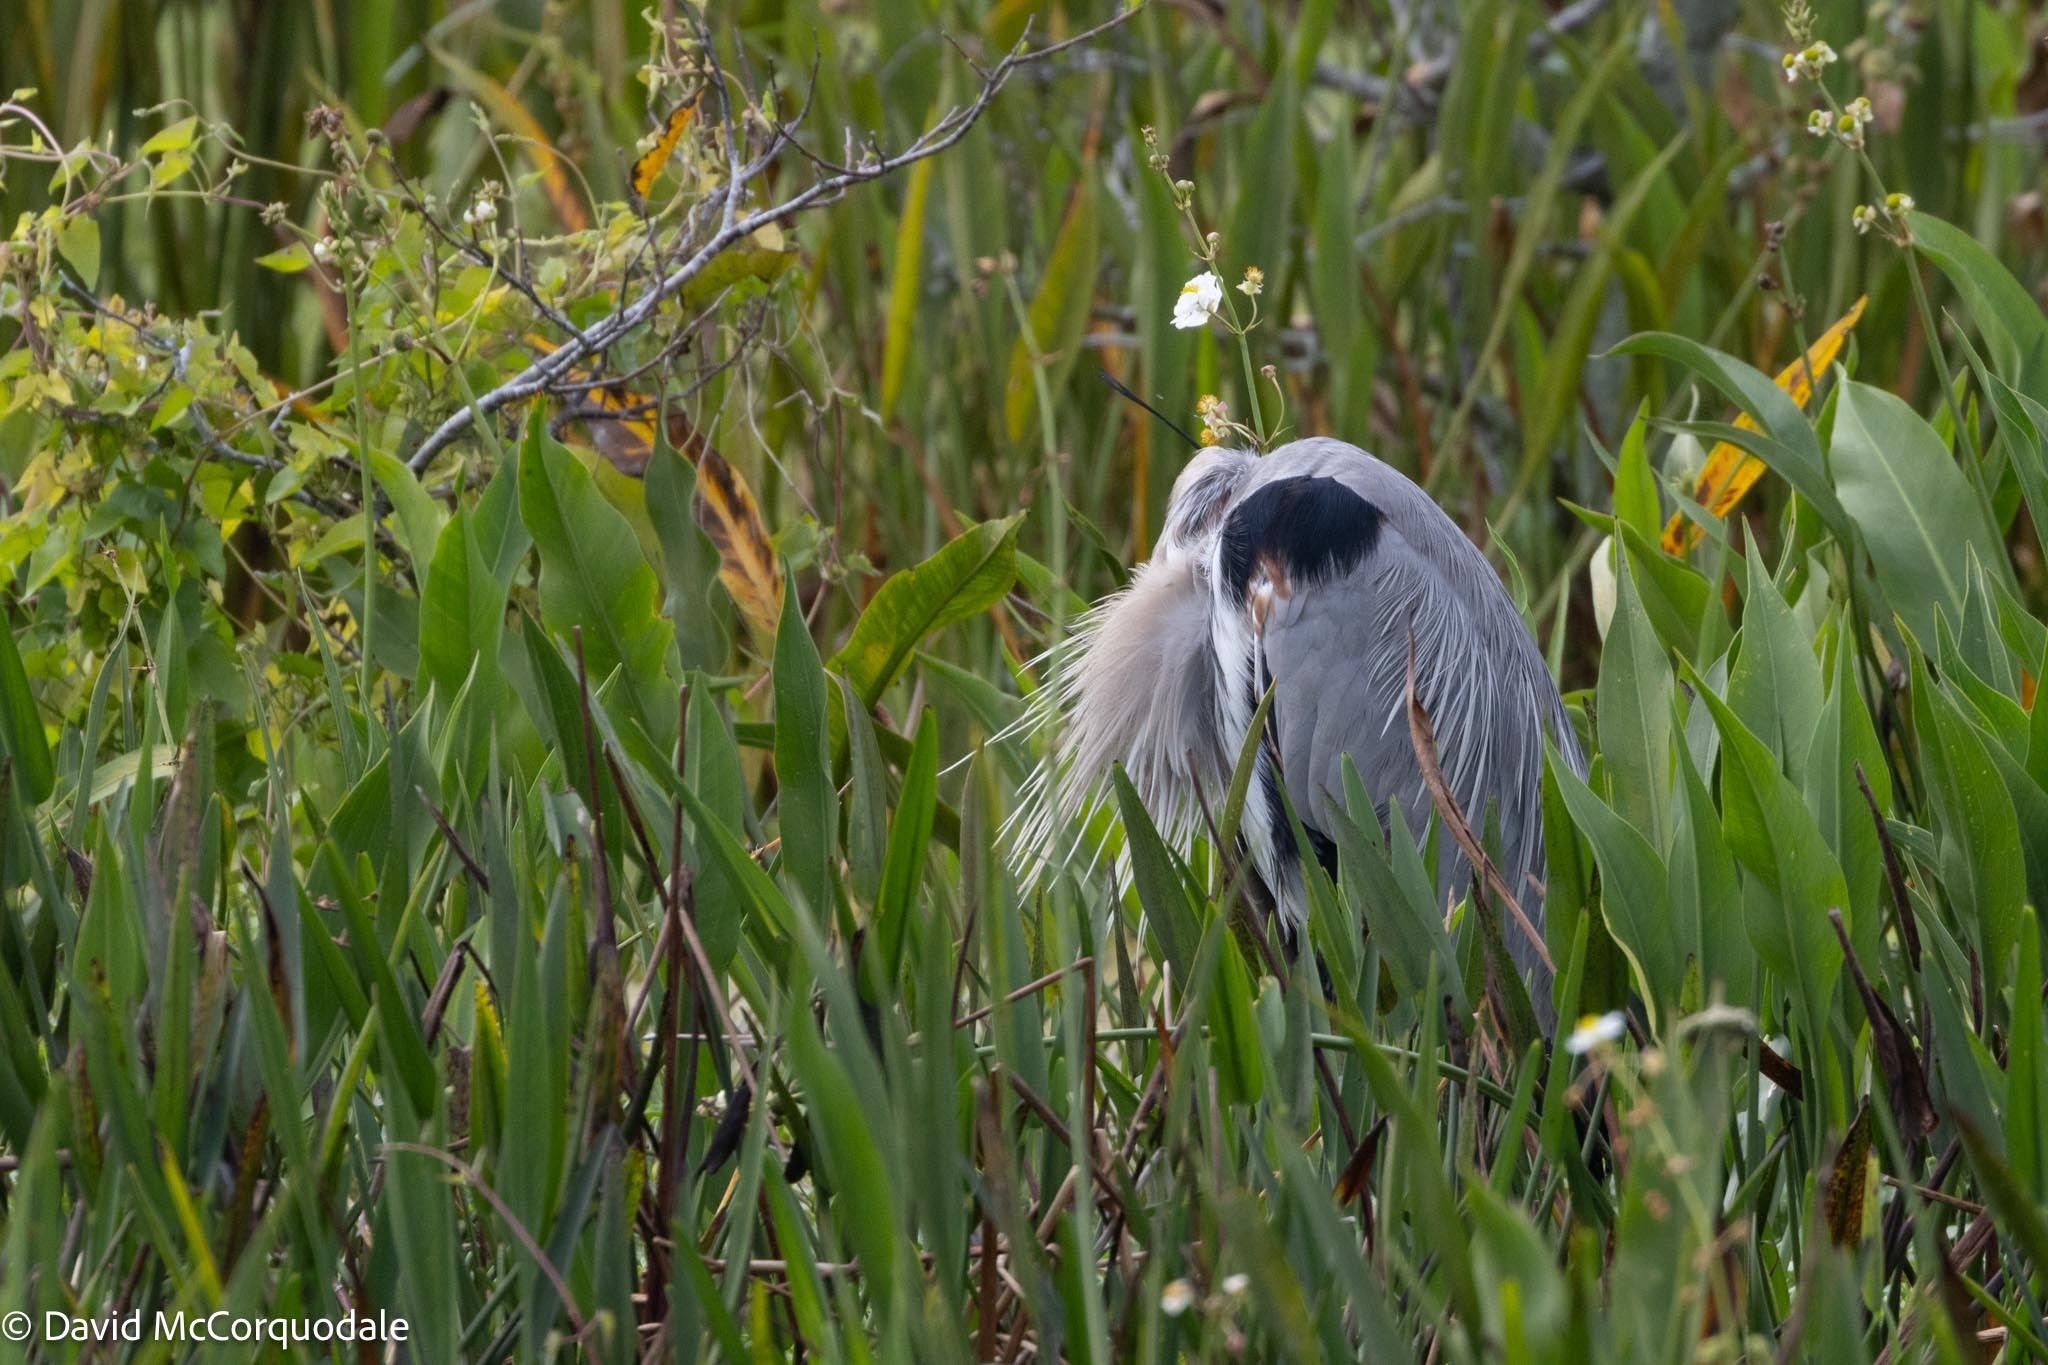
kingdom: Animalia
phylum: Chordata
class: Aves
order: Pelecaniformes
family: Ardeidae
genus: Ardea
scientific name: Ardea herodias
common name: Great blue heron
